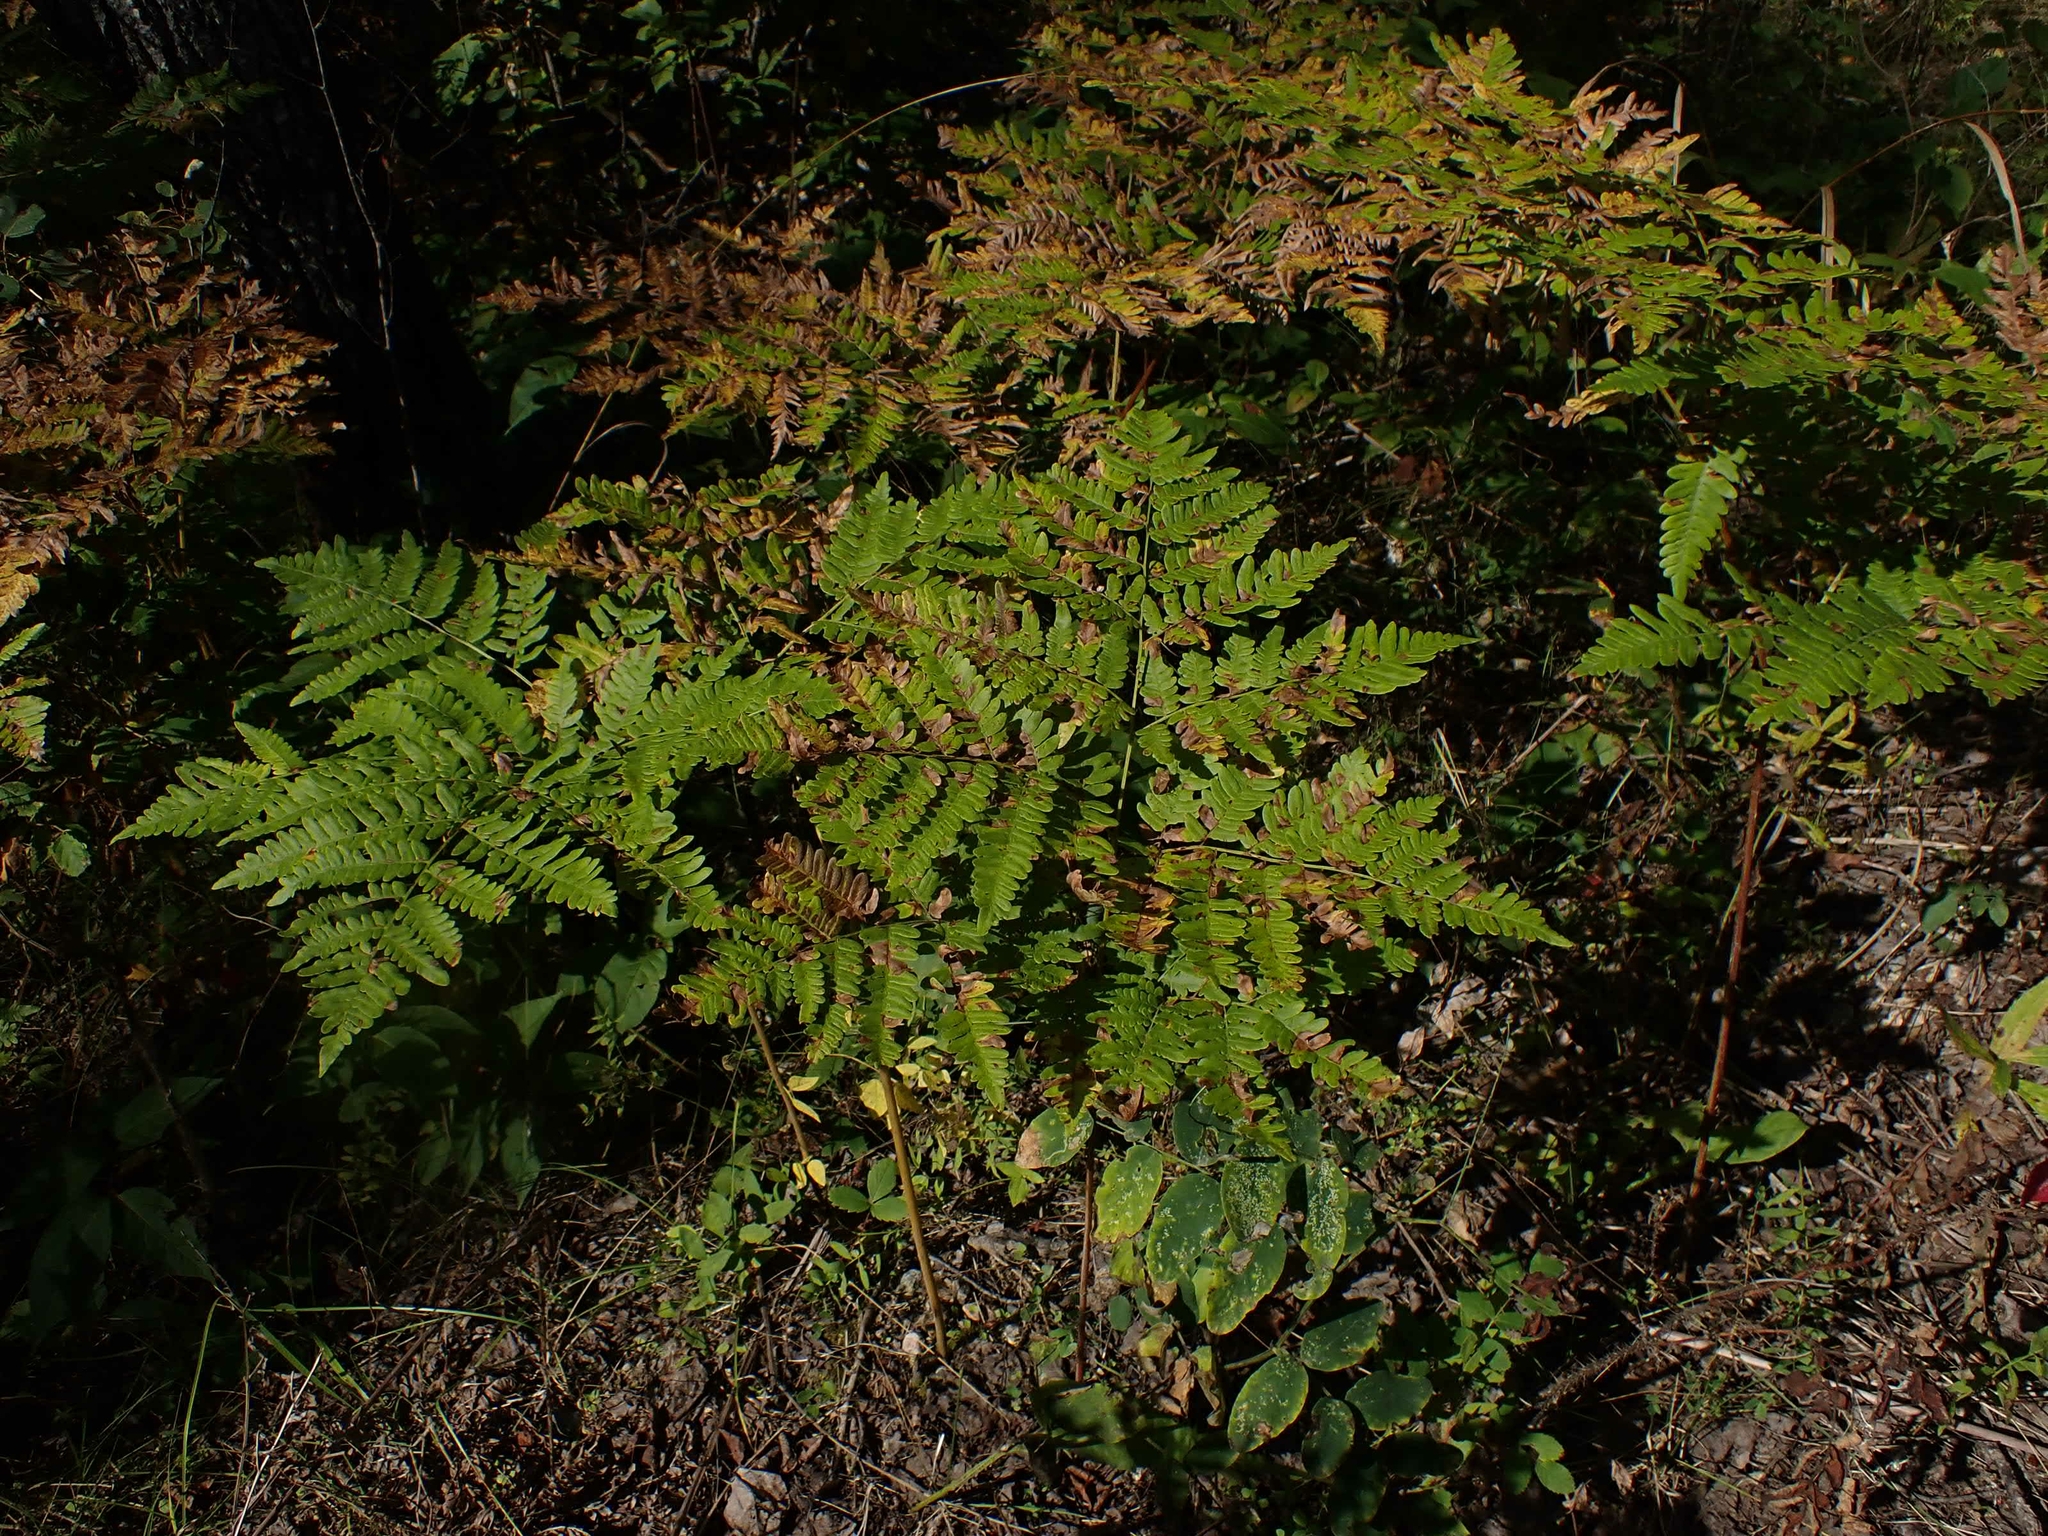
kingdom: Plantae
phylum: Tracheophyta
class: Polypodiopsida
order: Polypodiales
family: Dennstaedtiaceae
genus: Pteridium
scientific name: Pteridium aquilinum
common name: Bracken
